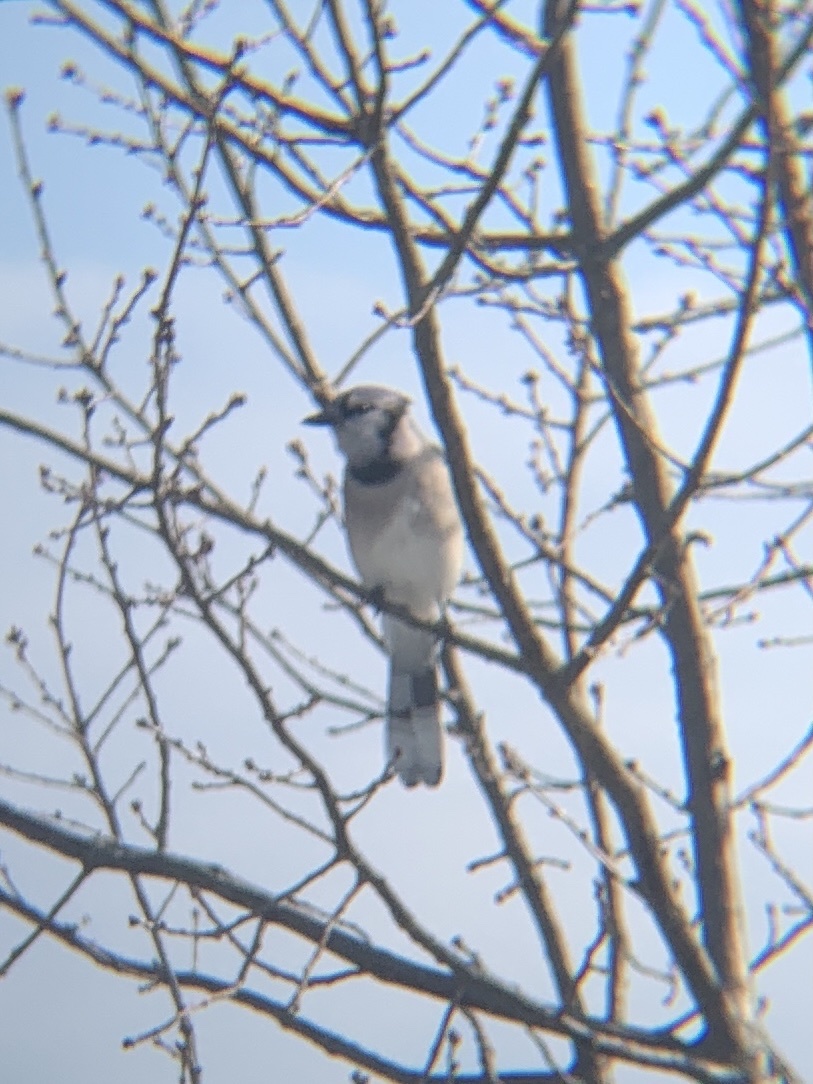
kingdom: Animalia
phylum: Chordata
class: Aves
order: Passeriformes
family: Corvidae
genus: Cyanocitta
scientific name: Cyanocitta cristata
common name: Blue jay
